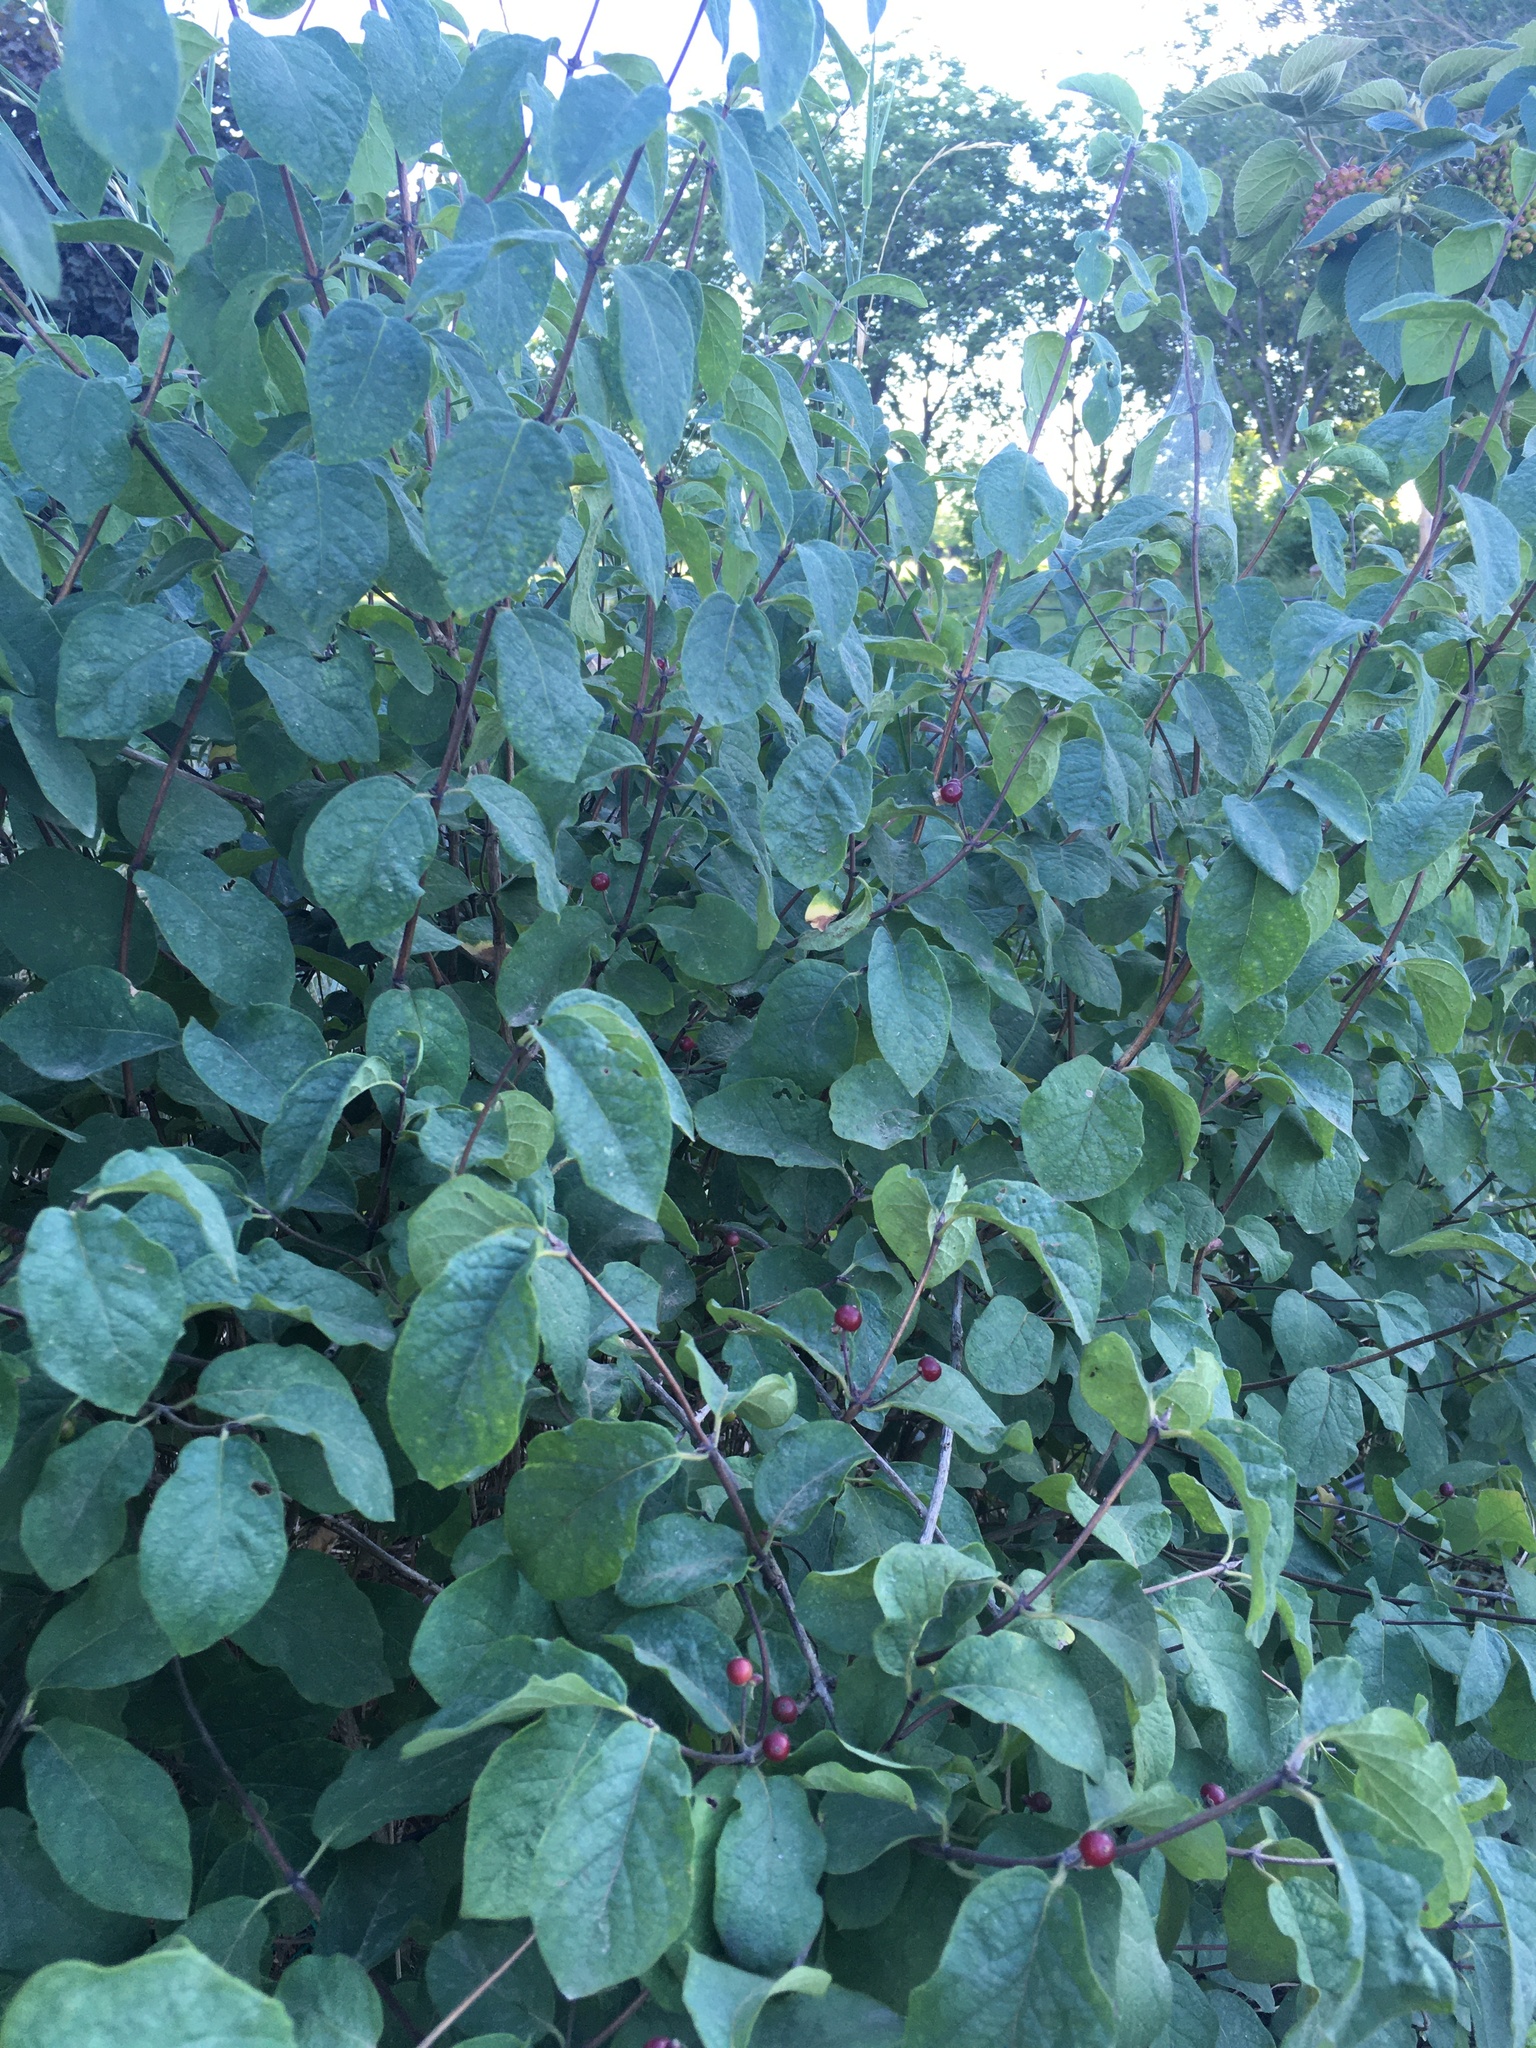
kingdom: Plantae
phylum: Tracheophyta
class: Magnoliopsida
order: Dipsacales
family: Caprifoliaceae
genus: Lonicera
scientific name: Lonicera xylosteum
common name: Fly honeysuckle
